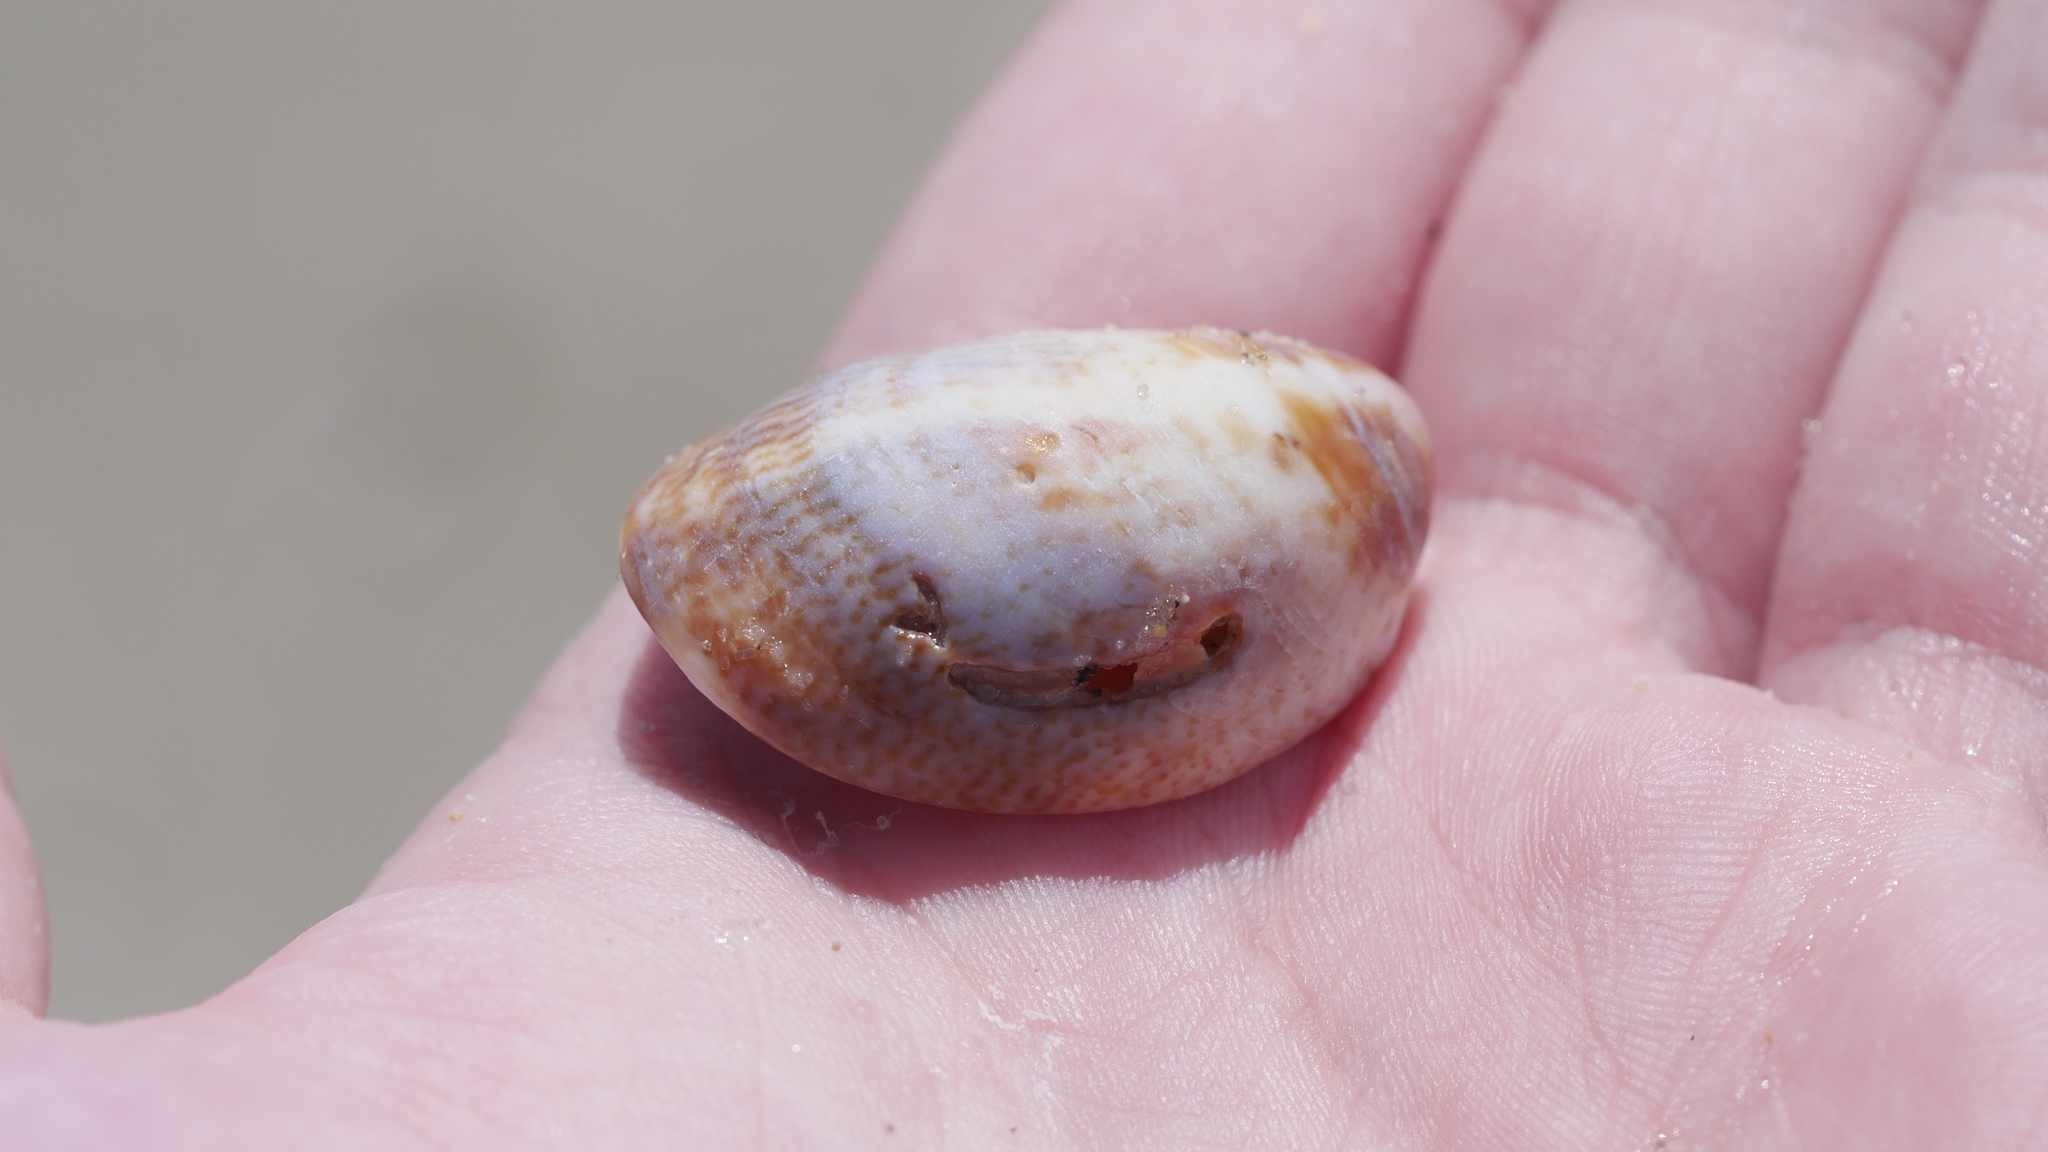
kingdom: Animalia
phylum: Mollusca
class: Gastropoda
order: Littorinimorpha
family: Calyptraeidae
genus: Crepidula
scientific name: Crepidula fornicata
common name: Slipper limpet
